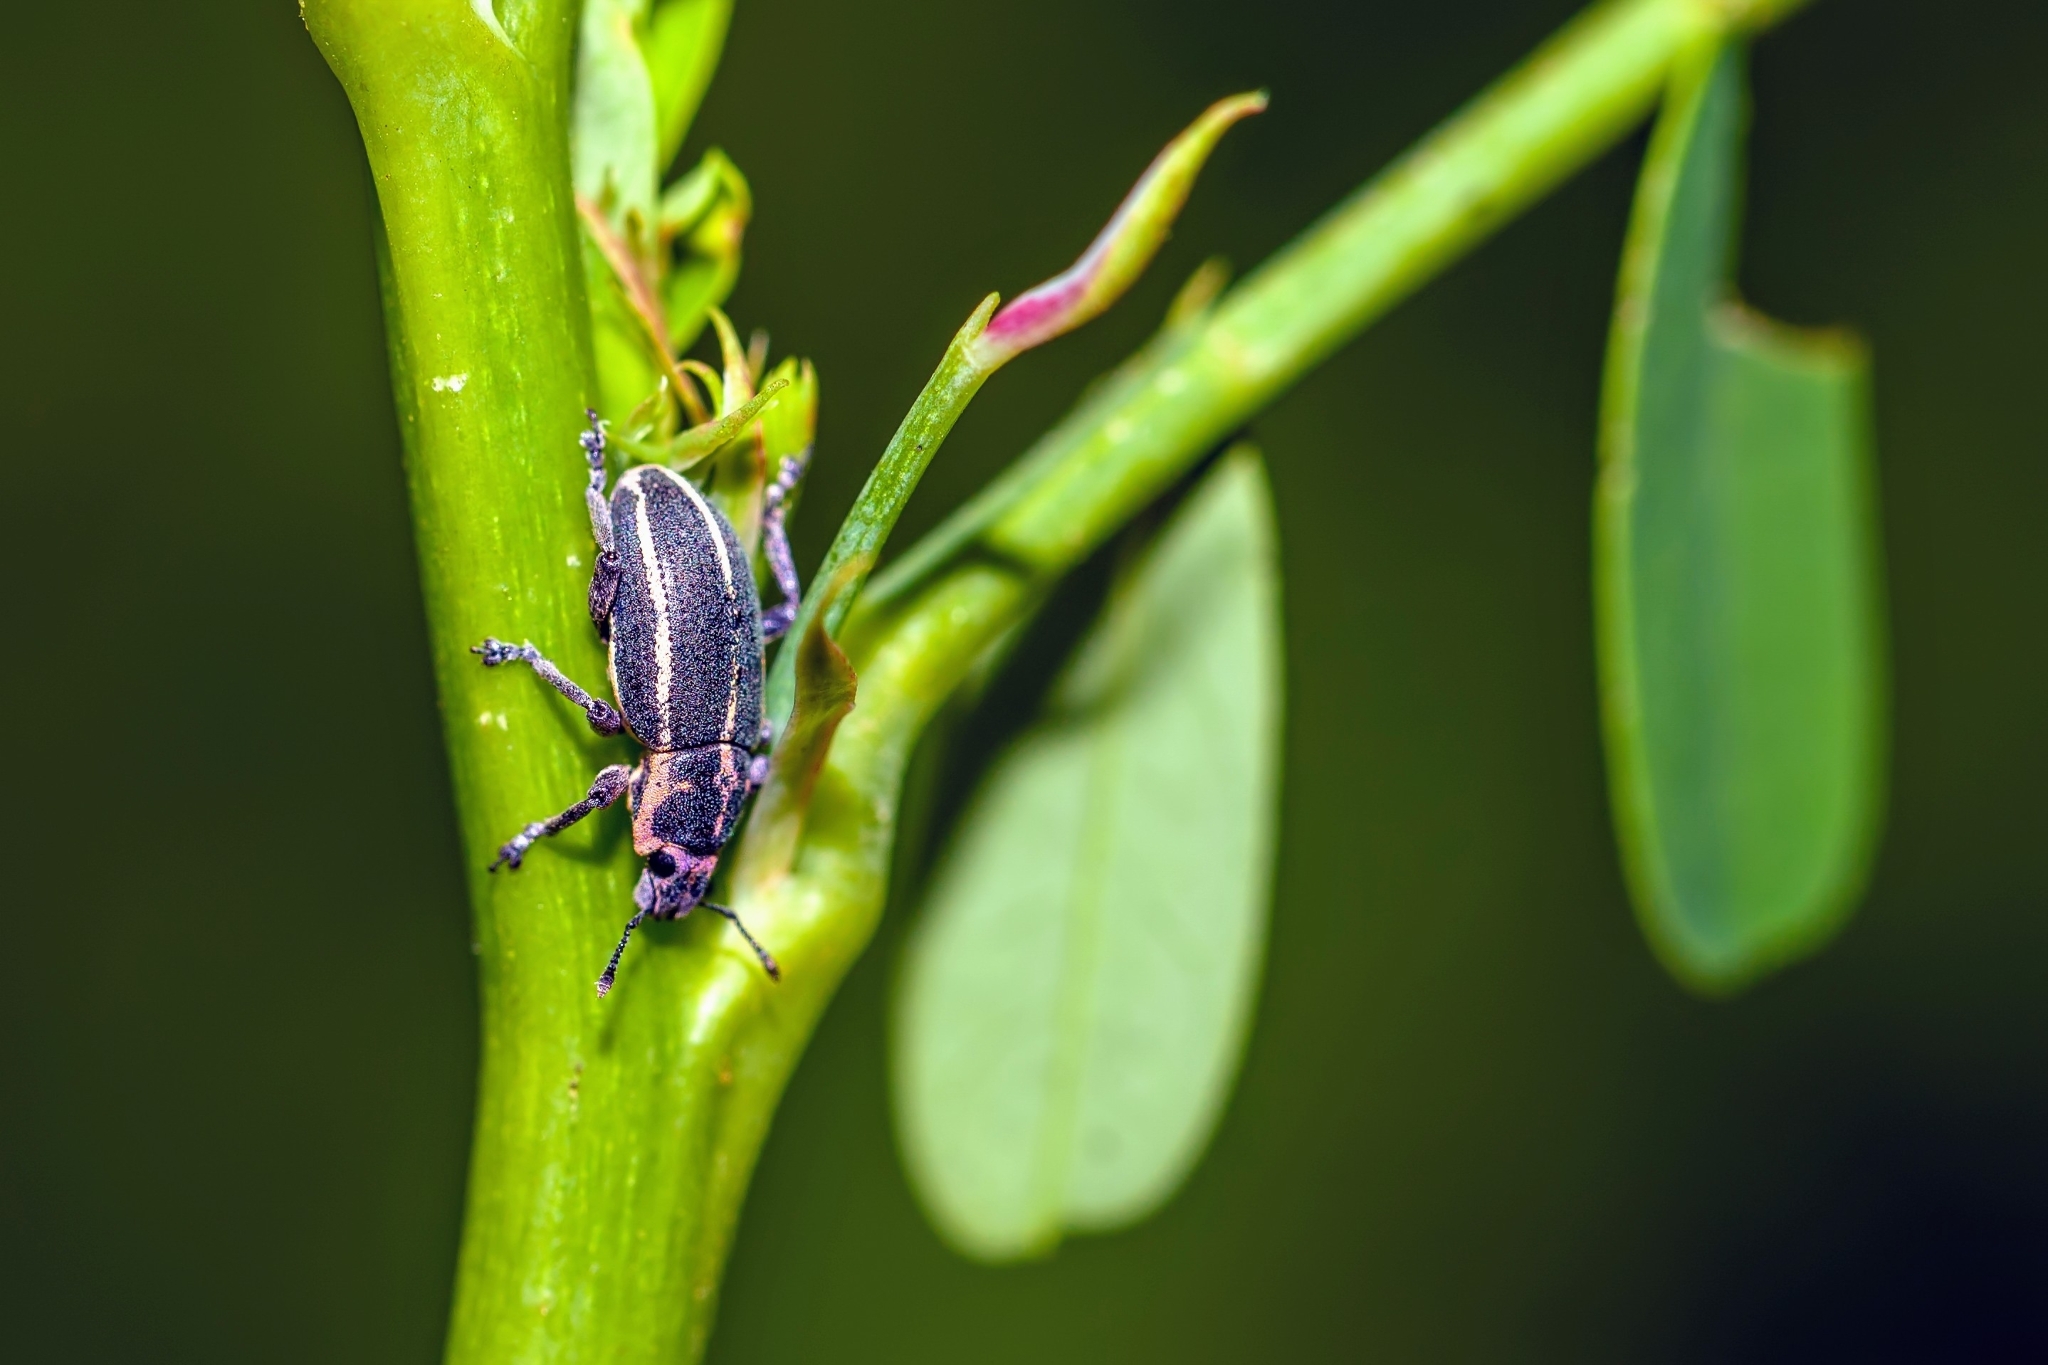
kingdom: Animalia
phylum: Arthropoda
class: Insecta
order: Coleoptera
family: Curculionidae
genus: Eudiagogus
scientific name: Eudiagogus maryae
